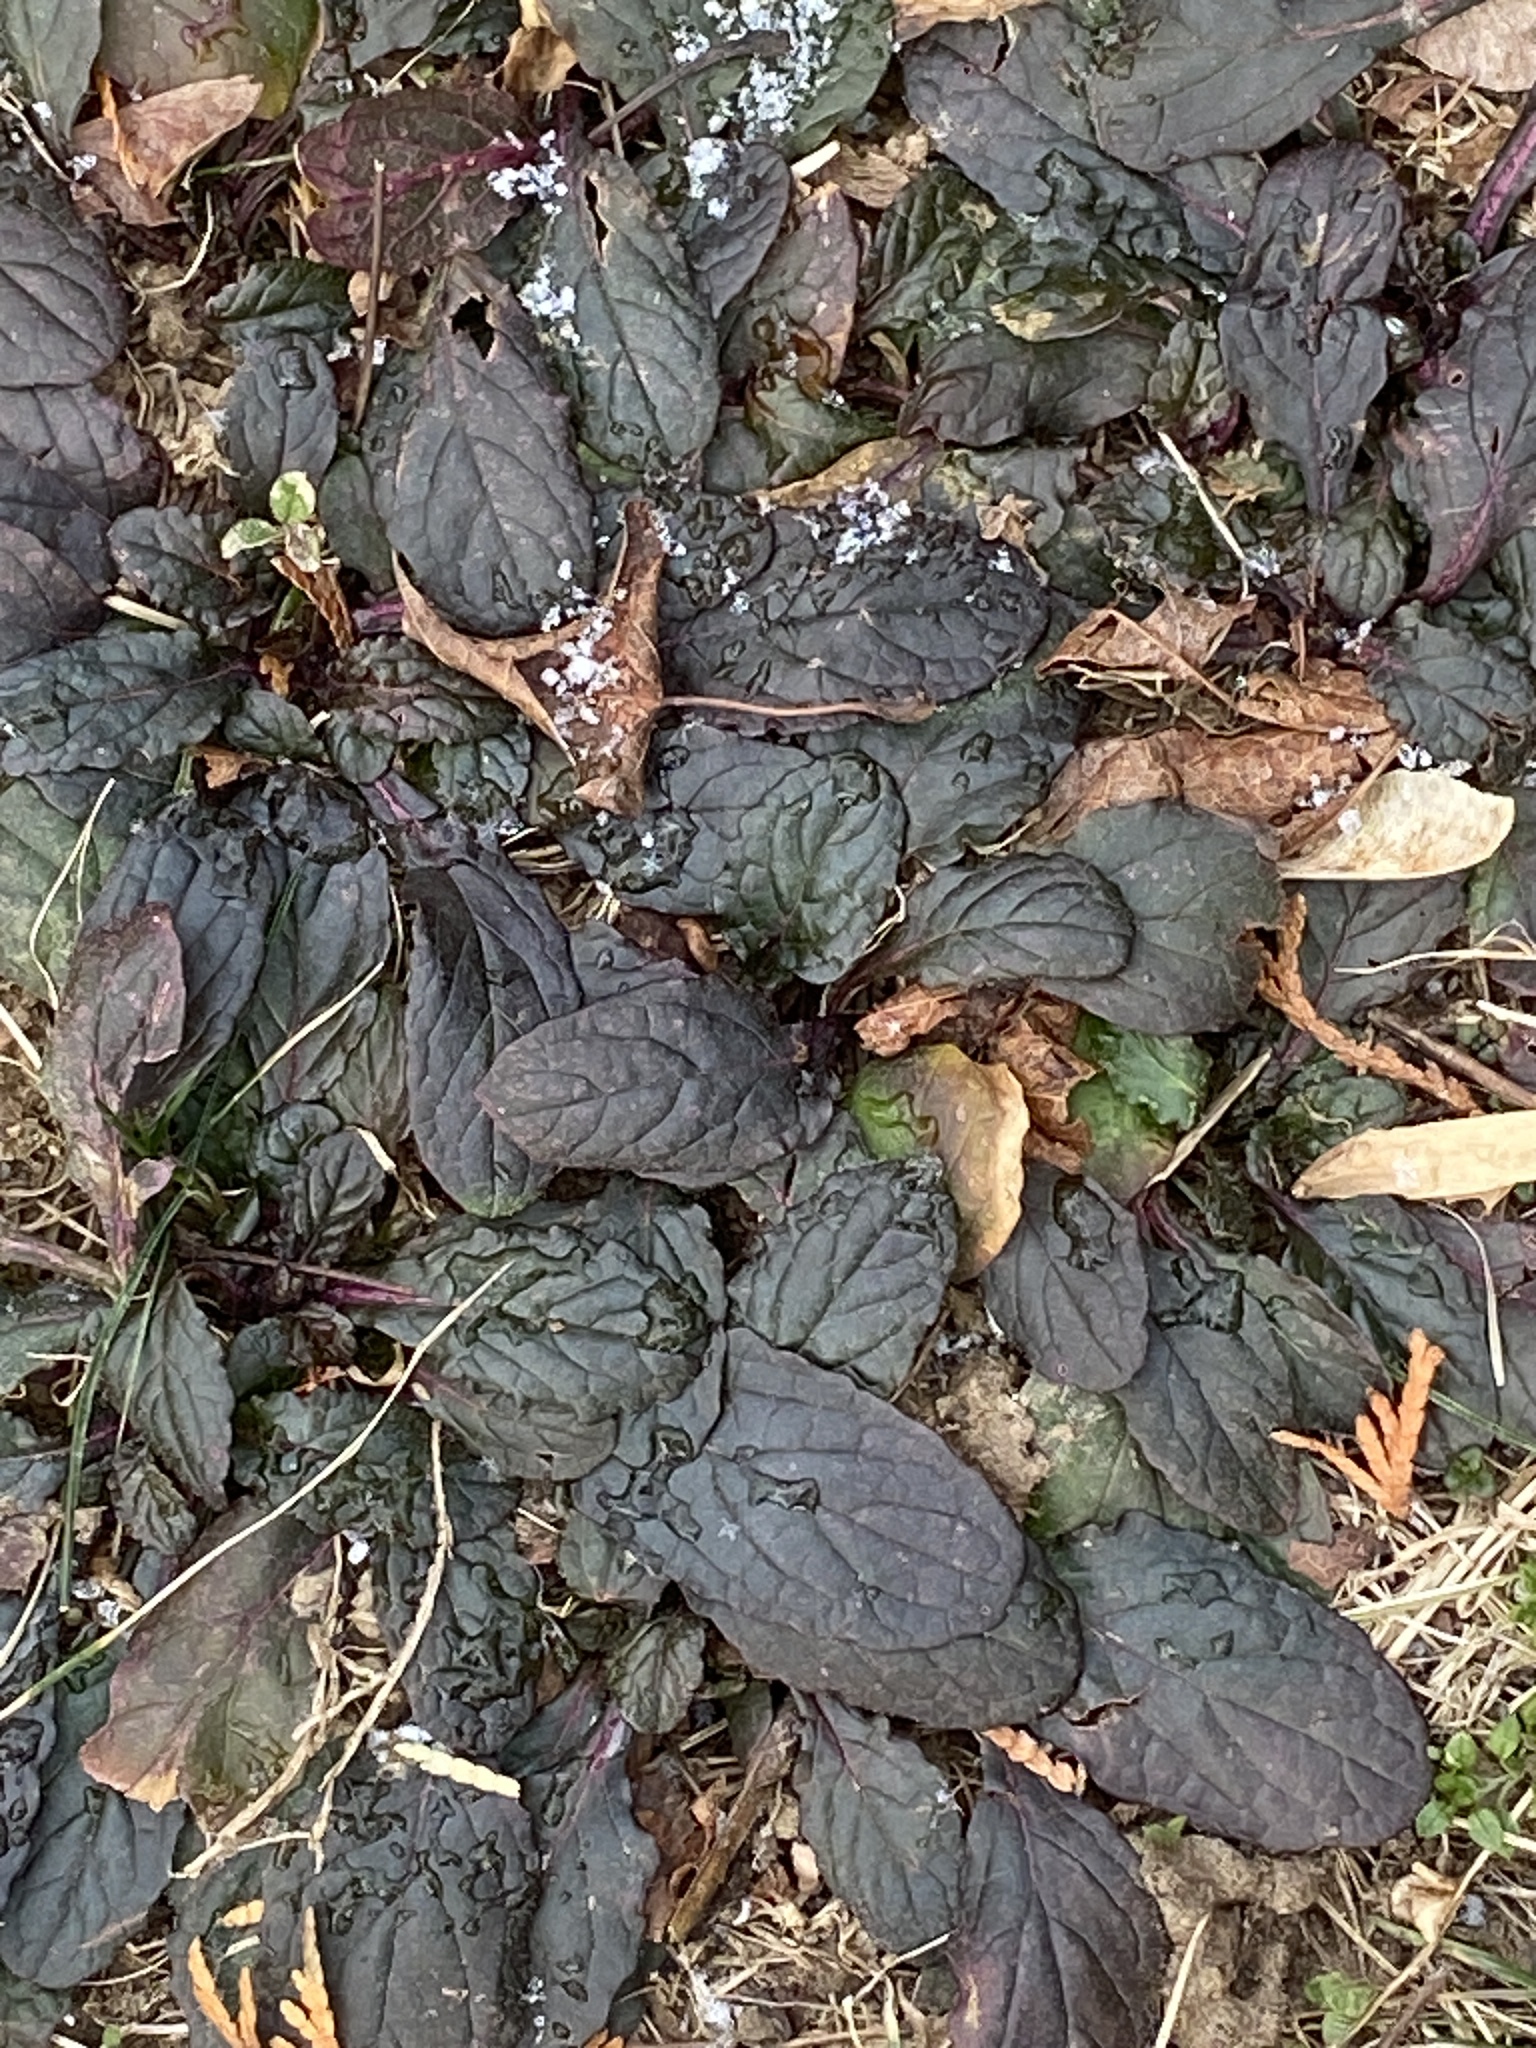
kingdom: Plantae
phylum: Tracheophyta
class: Magnoliopsida
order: Lamiales
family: Lamiaceae
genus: Ajuga
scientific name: Ajuga reptans
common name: Bugle
